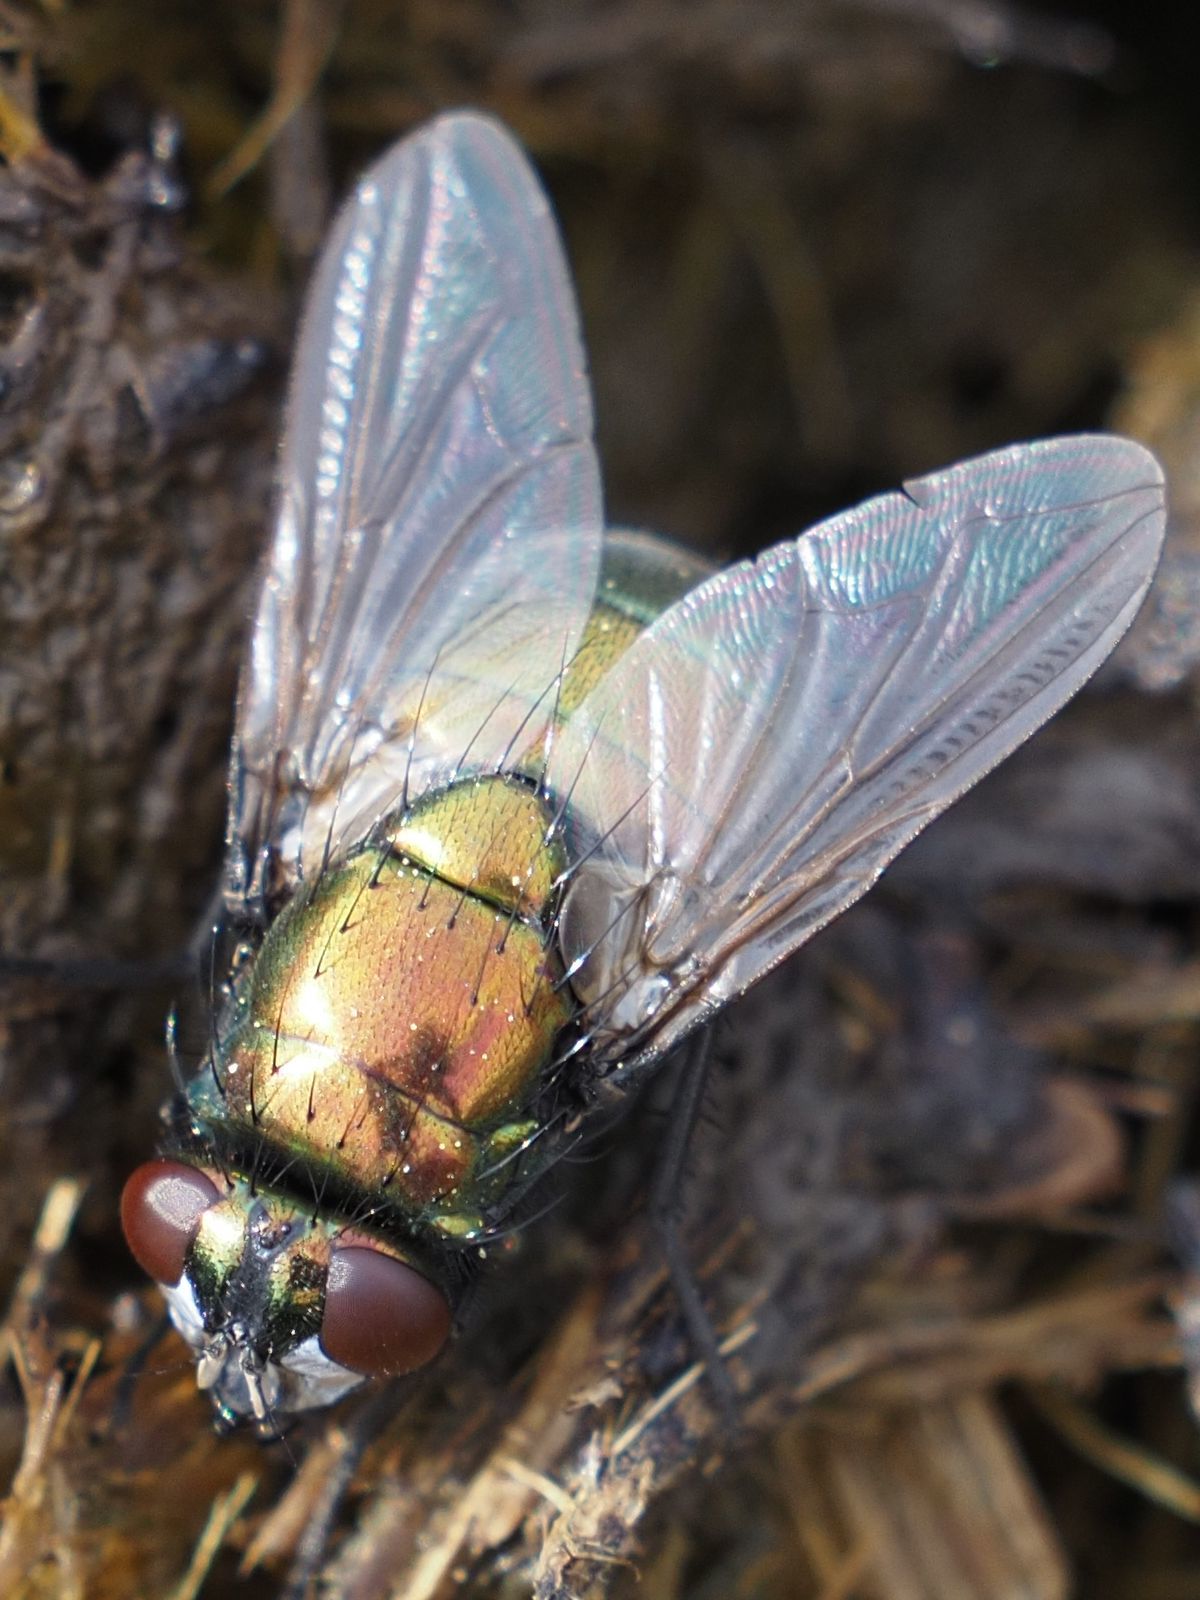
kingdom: Animalia
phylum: Arthropoda
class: Insecta
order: Diptera
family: Muscidae
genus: Neomyia
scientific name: Neomyia cornicina
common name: House fly
